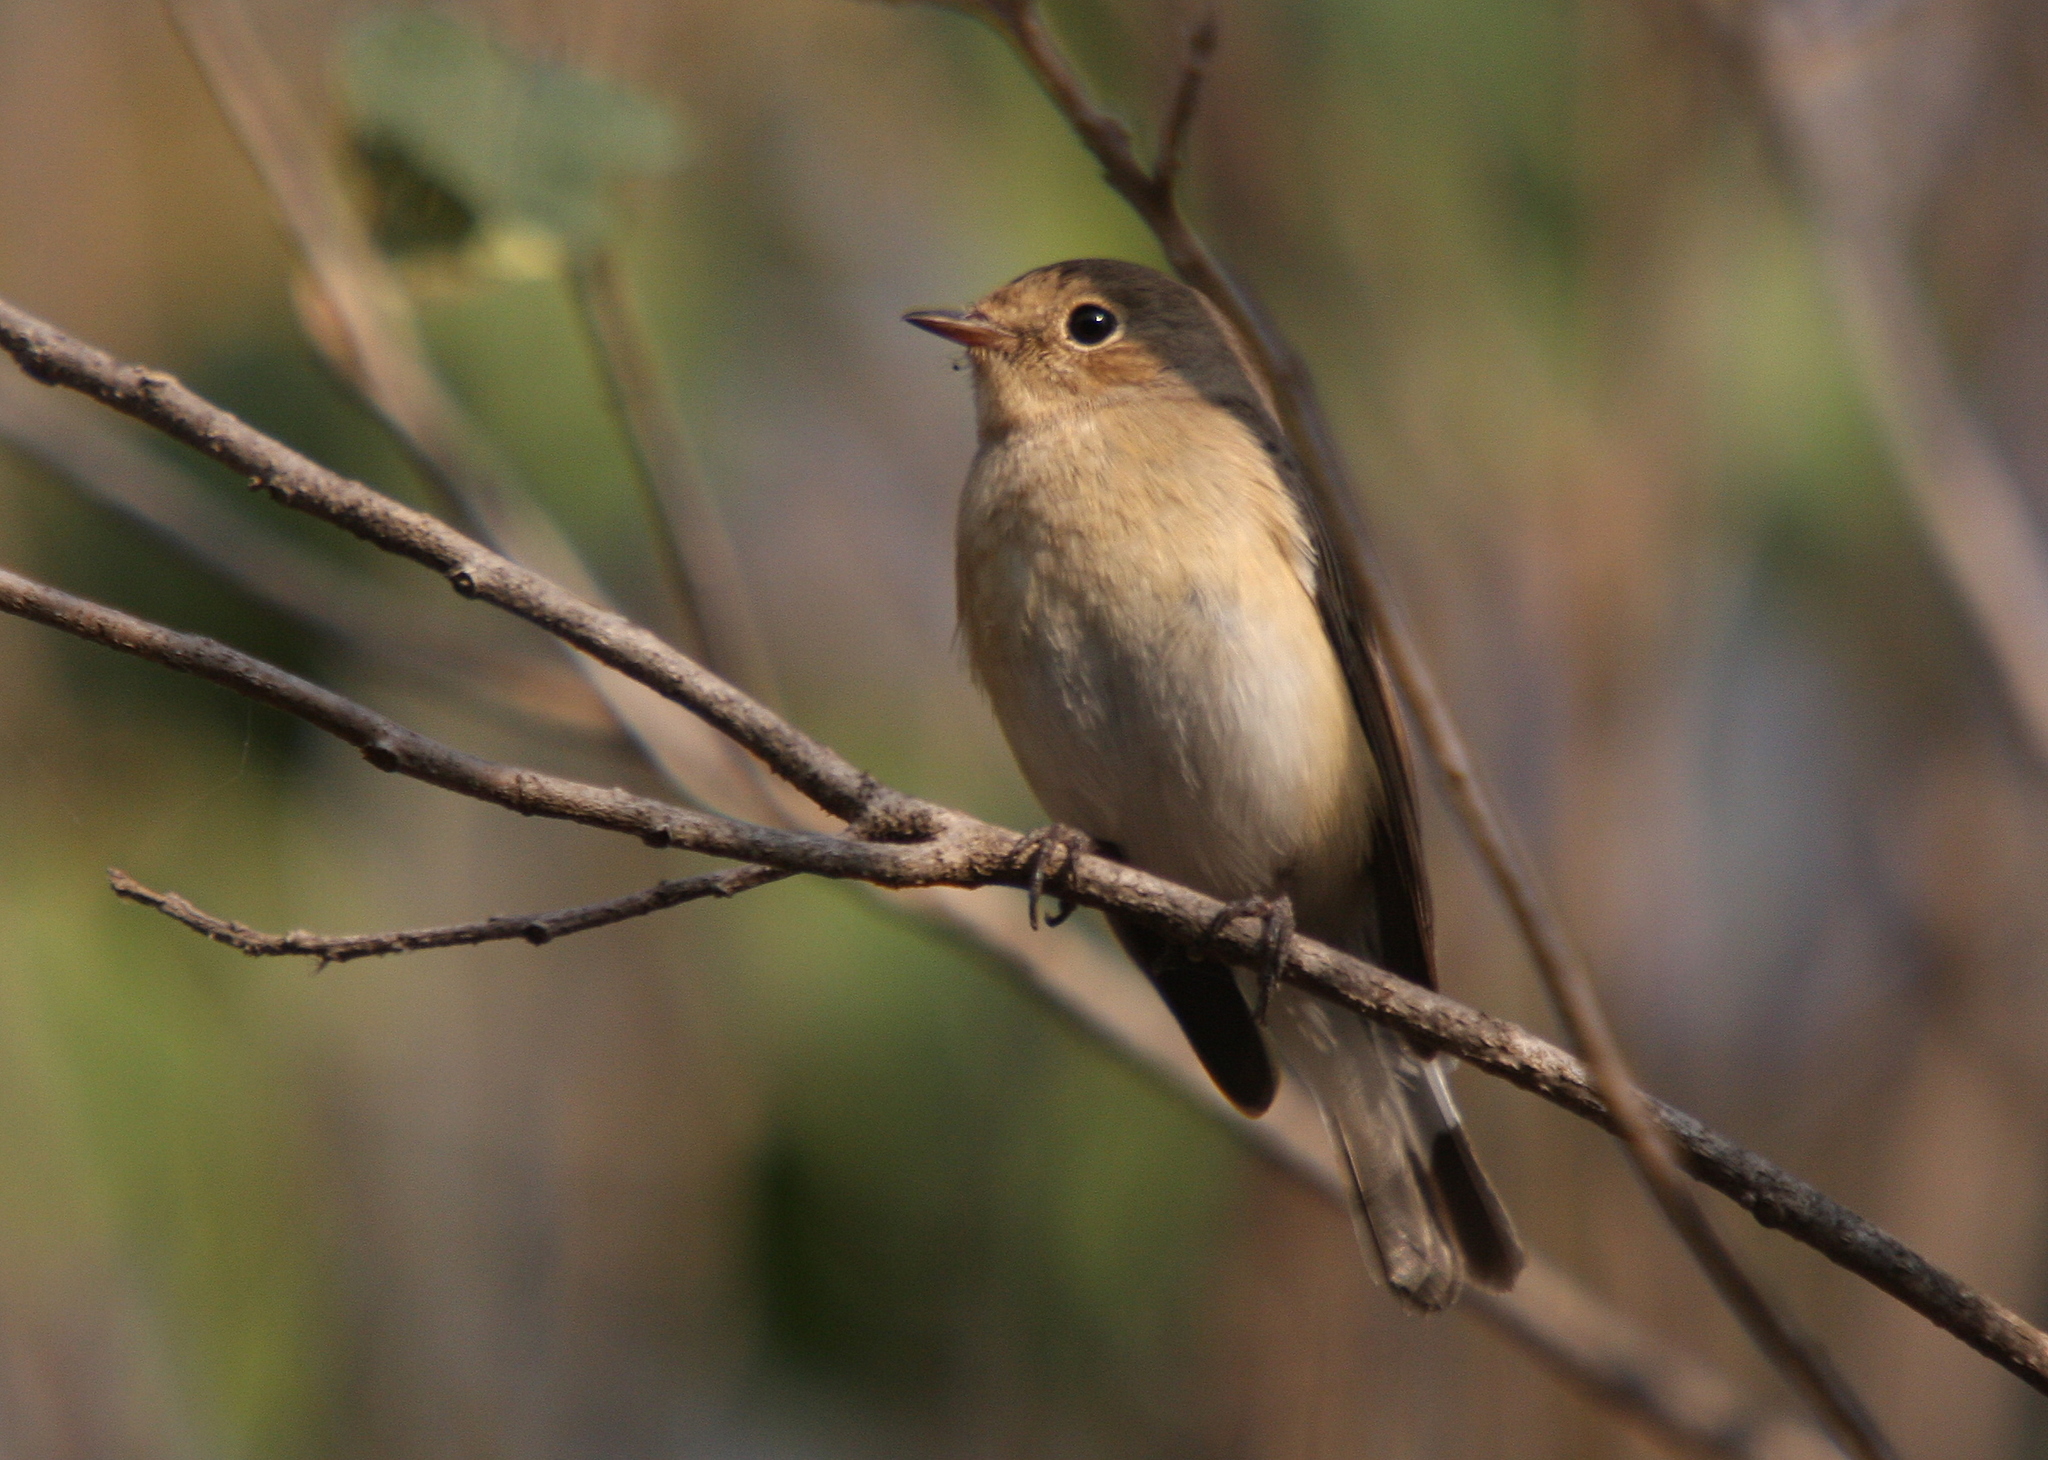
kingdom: Animalia
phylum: Chordata
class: Aves
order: Passeriformes
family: Muscicapidae
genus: Ficedula
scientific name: Ficedula parva
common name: Red-breasted flycatcher
